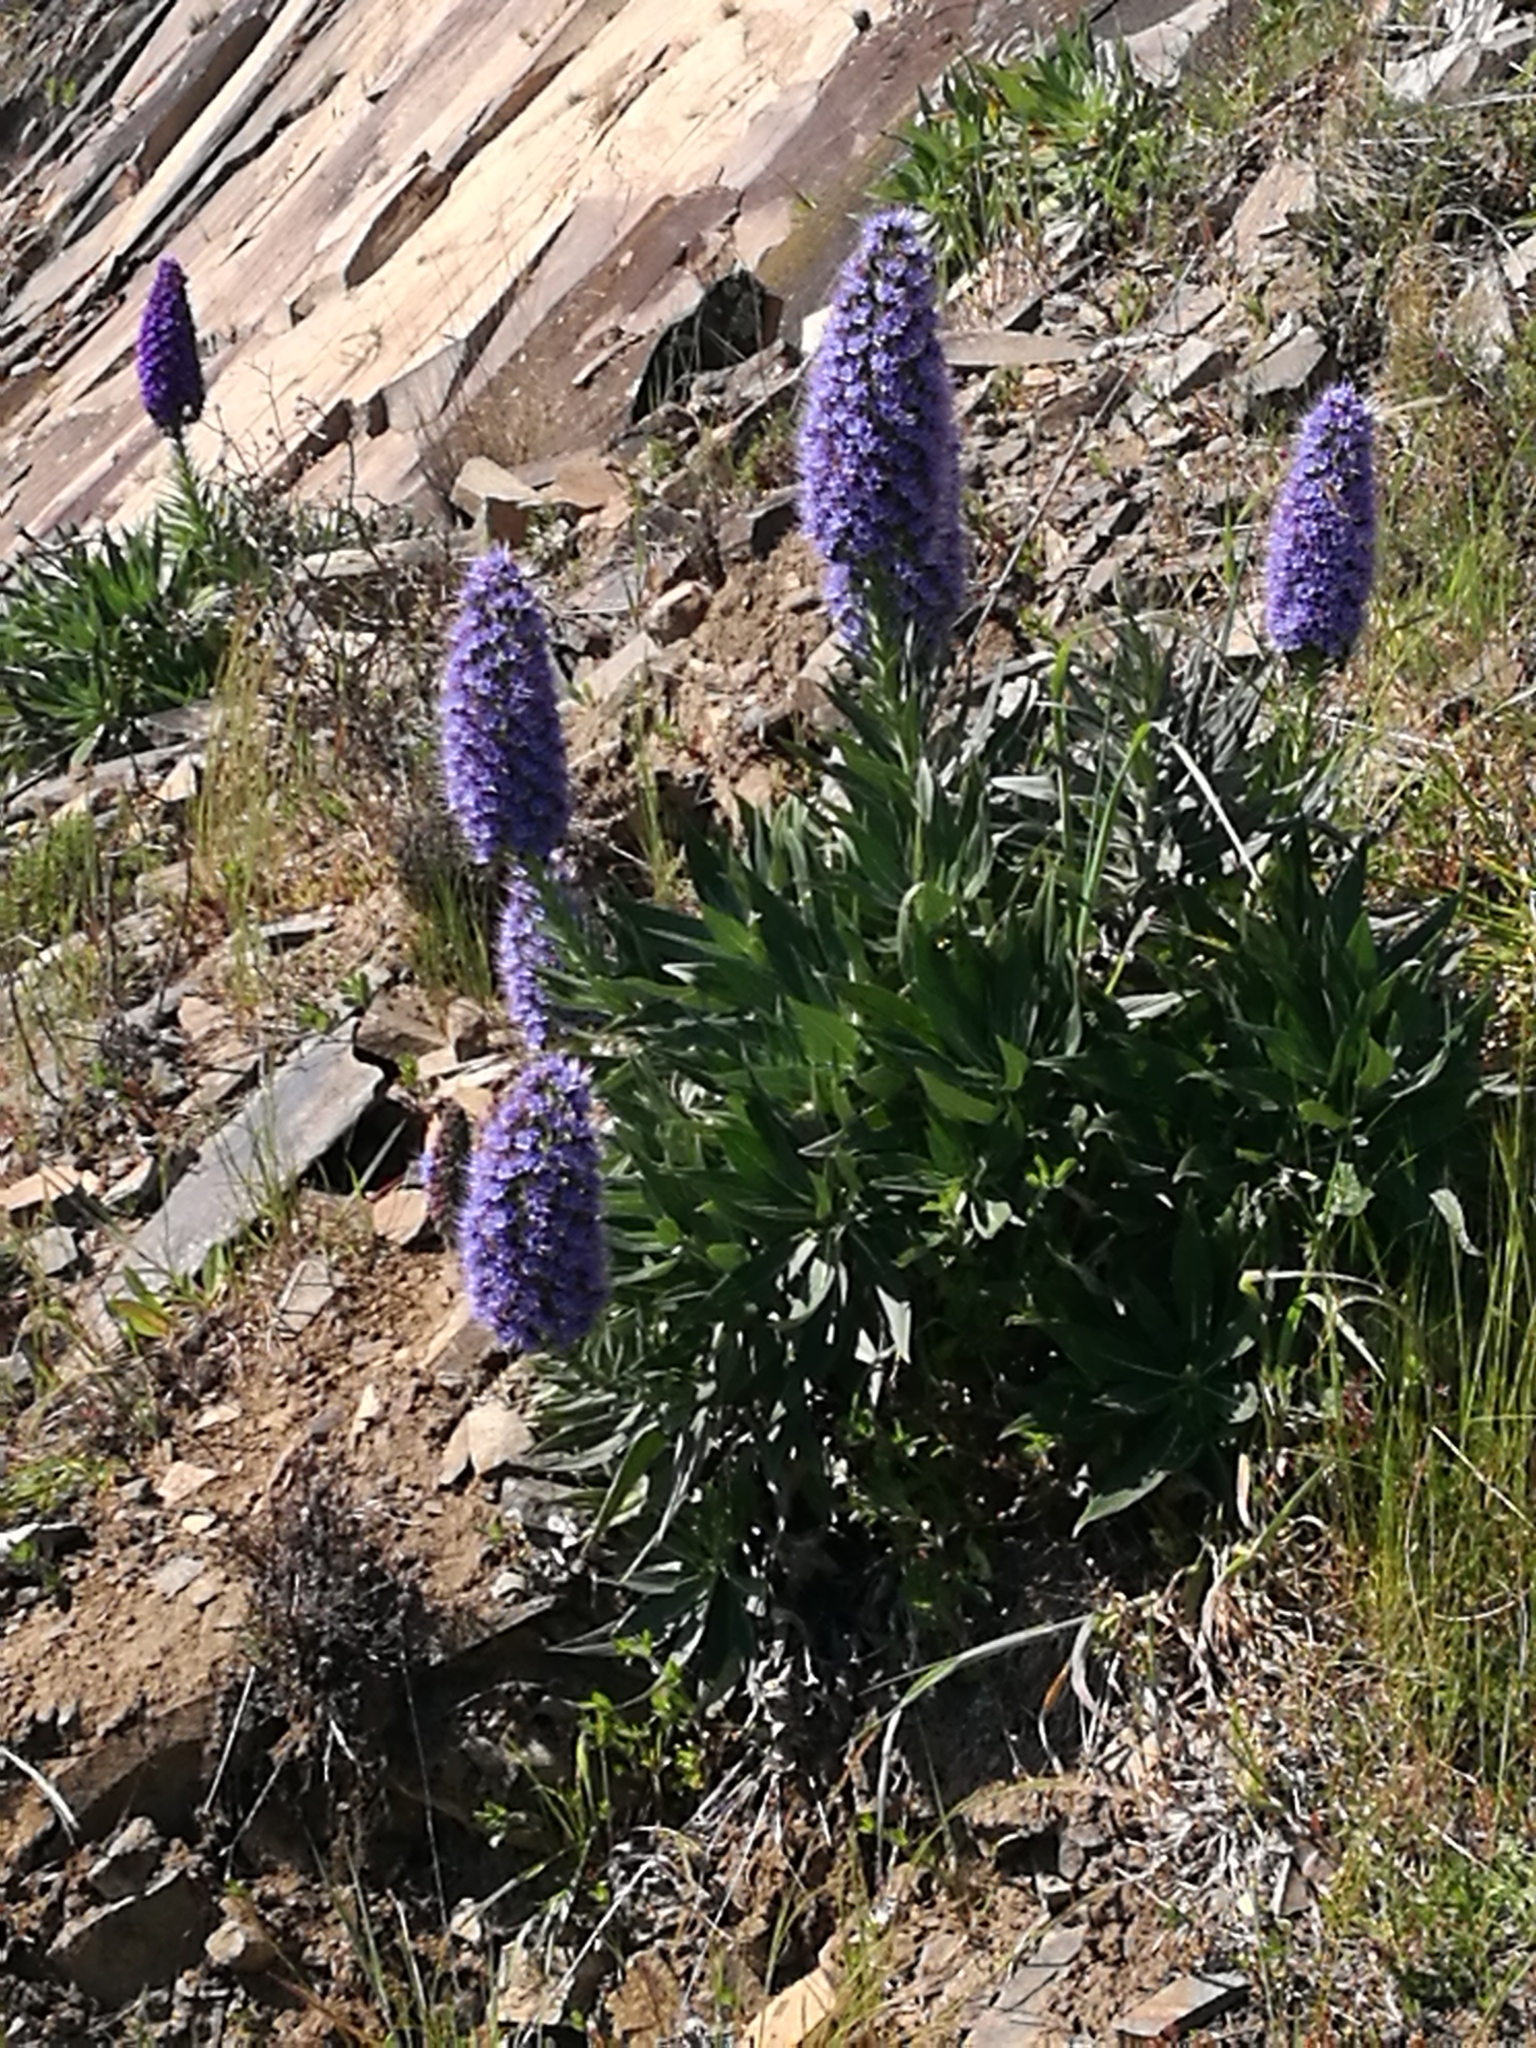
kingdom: Plantae
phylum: Tracheophyta
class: Magnoliopsida
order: Boraginales
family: Boraginaceae
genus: Echium
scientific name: Echium candicans
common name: Pride of madeira
